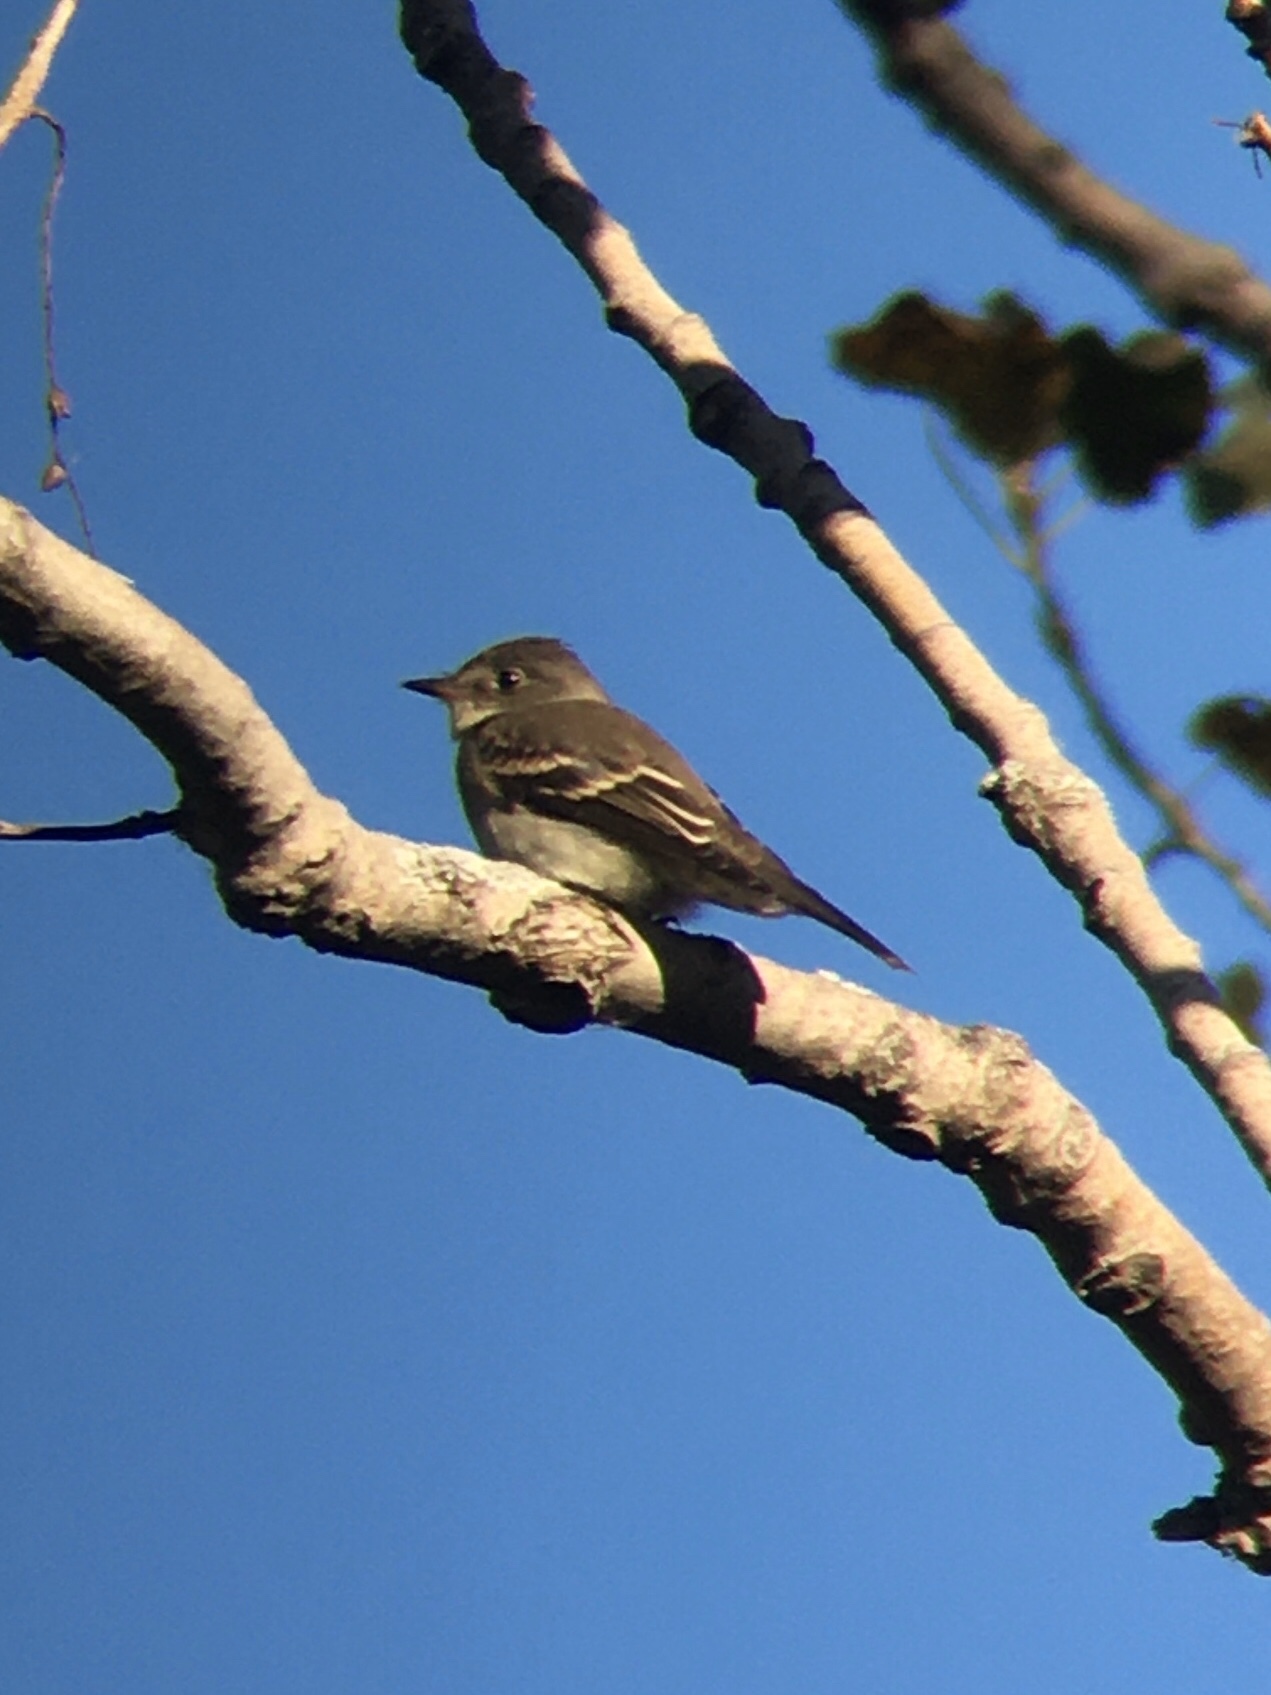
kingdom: Animalia
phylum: Chordata
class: Aves
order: Passeriformes
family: Tyrannidae
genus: Contopus
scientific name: Contopus virens
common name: Eastern wood-pewee
